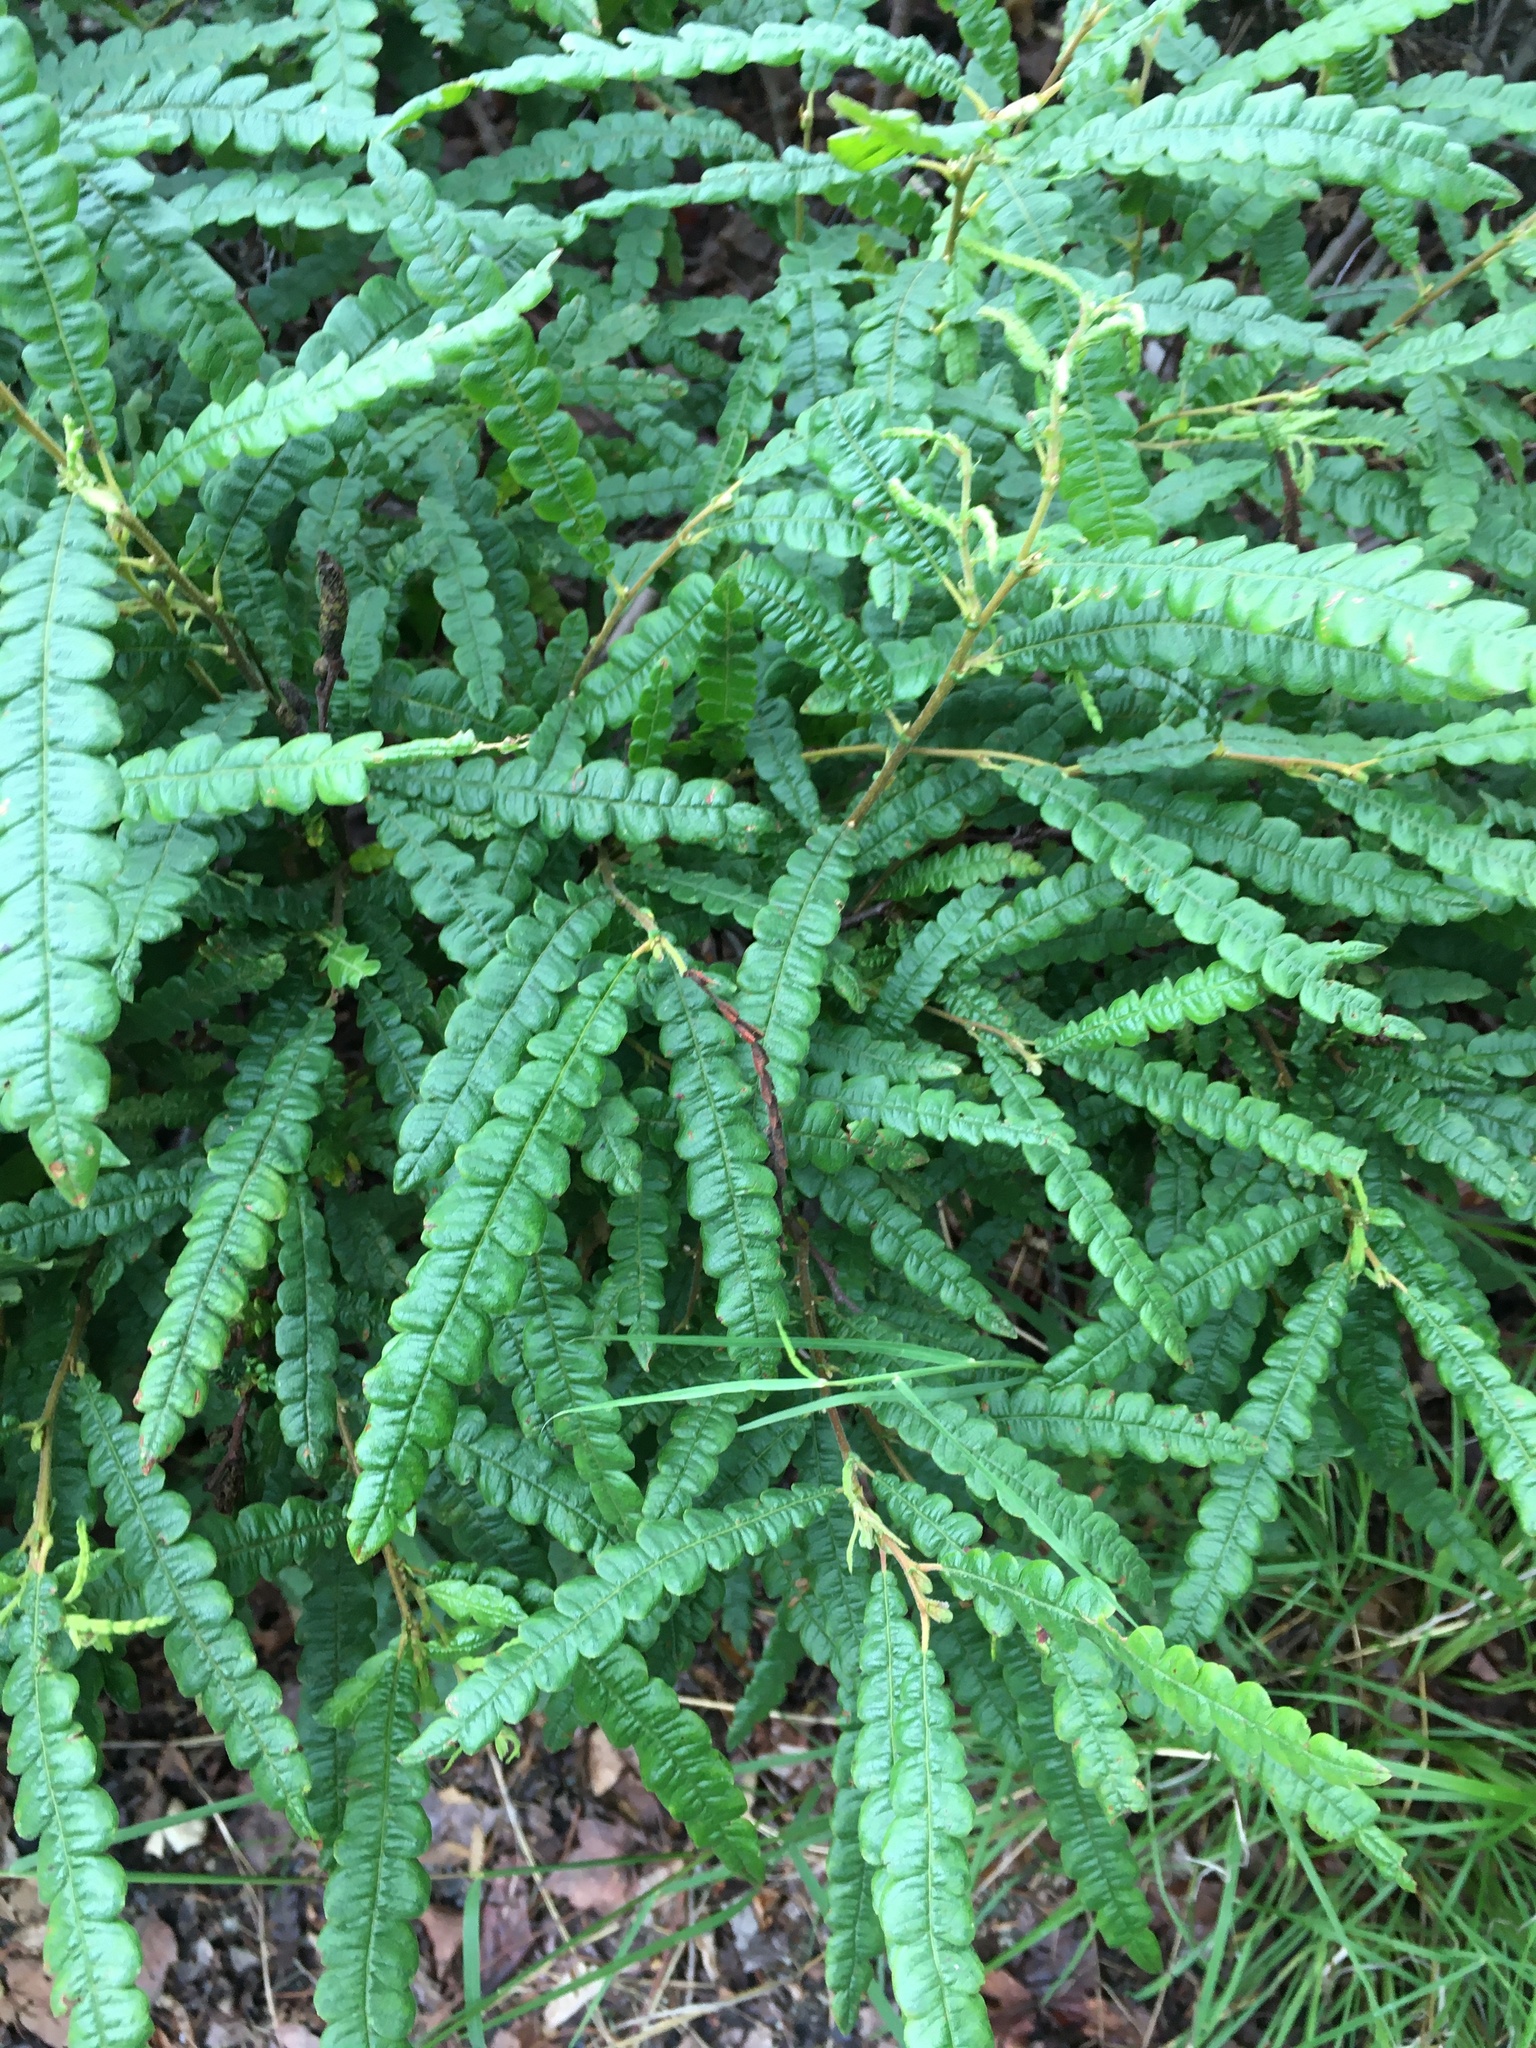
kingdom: Plantae
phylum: Tracheophyta
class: Magnoliopsida
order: Fagales
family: Myricaceae
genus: Comptonia
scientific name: Comptonia peregrina
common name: Sweet-fern
